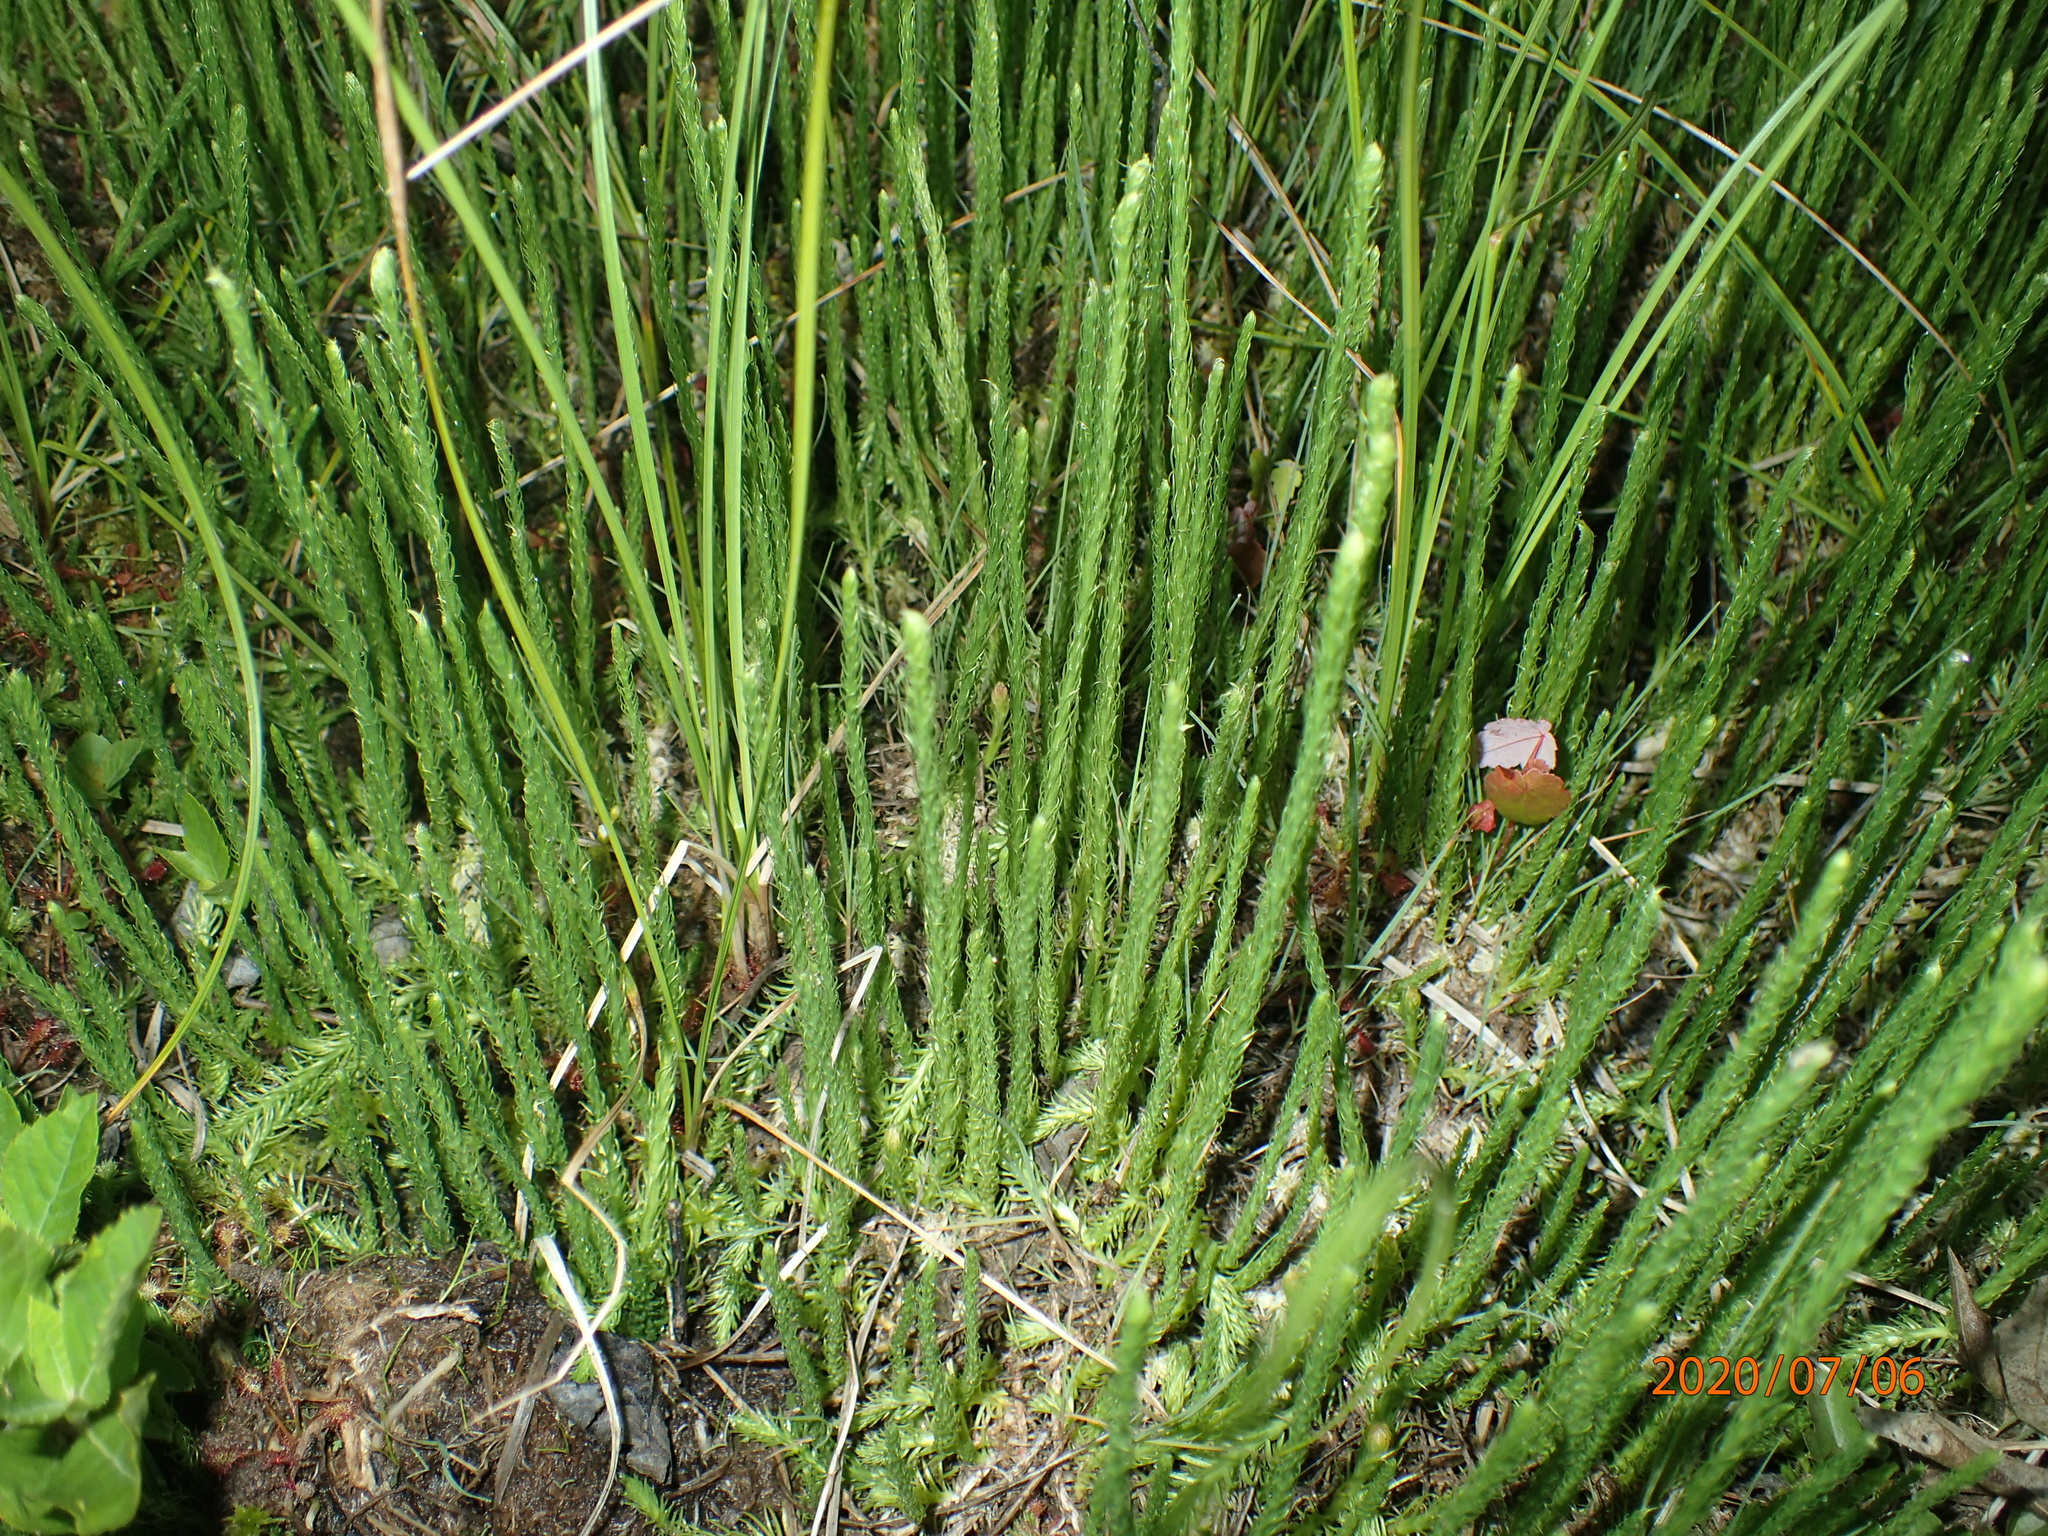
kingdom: Plantae
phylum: Tracheophyta
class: Lycopodiopsida
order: Lycopodiales
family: Lycopodiaceae
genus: Lycopodiella
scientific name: Lycopodiella appressa
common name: Appressed bog clubmoss
